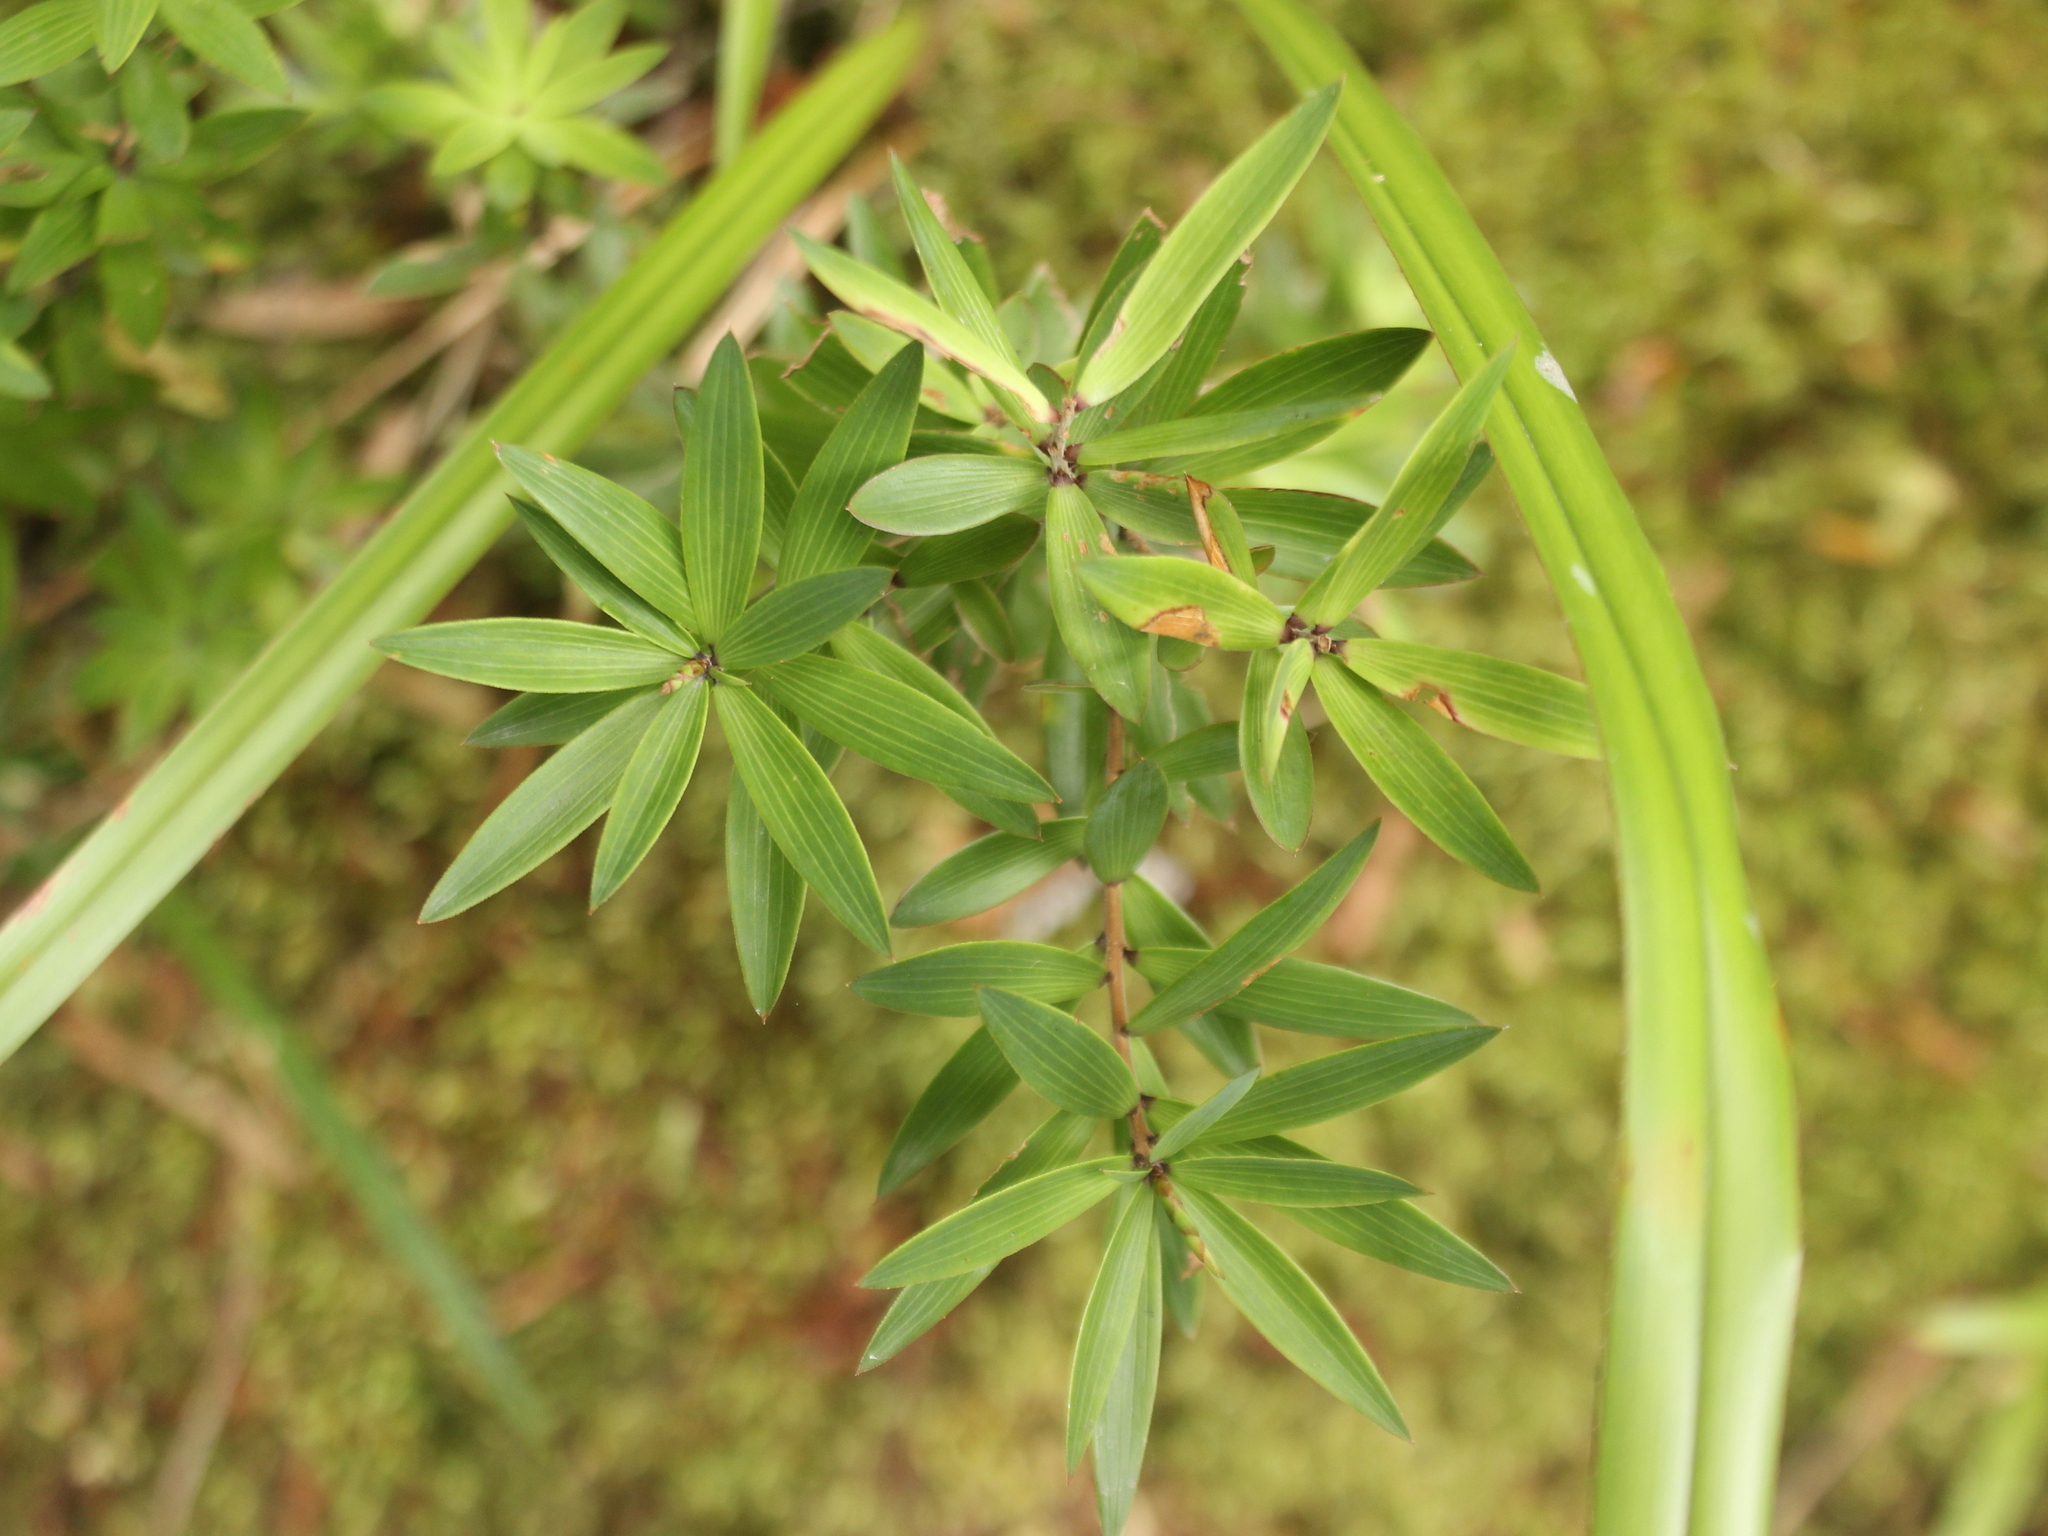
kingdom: Plantae
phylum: Tracheophyta
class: Magnoliopsida
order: Ericales
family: Ericaceae
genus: Leucopogon
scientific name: Leucopogon fasciculatus
